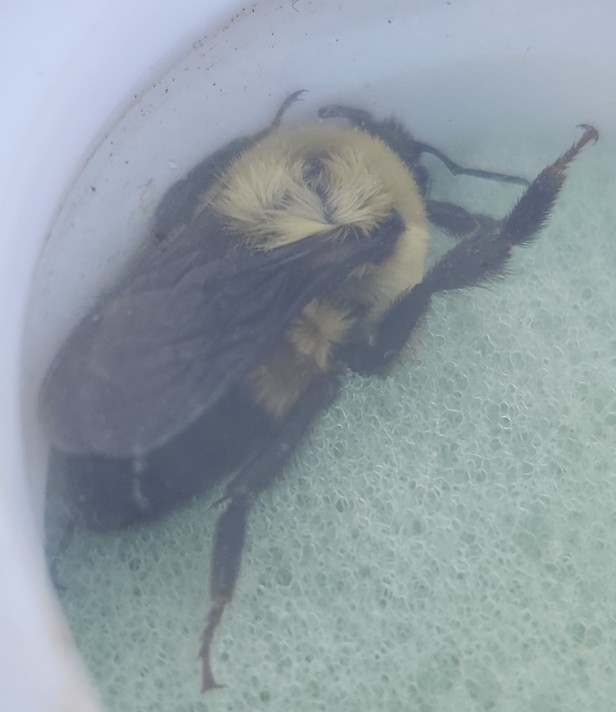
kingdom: Animalia
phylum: Arthropoda
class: Insecta
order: Hymenoptera
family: Apidae
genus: Bombus
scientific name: Bombus griseocollis
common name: Brown-belted bumble bee
